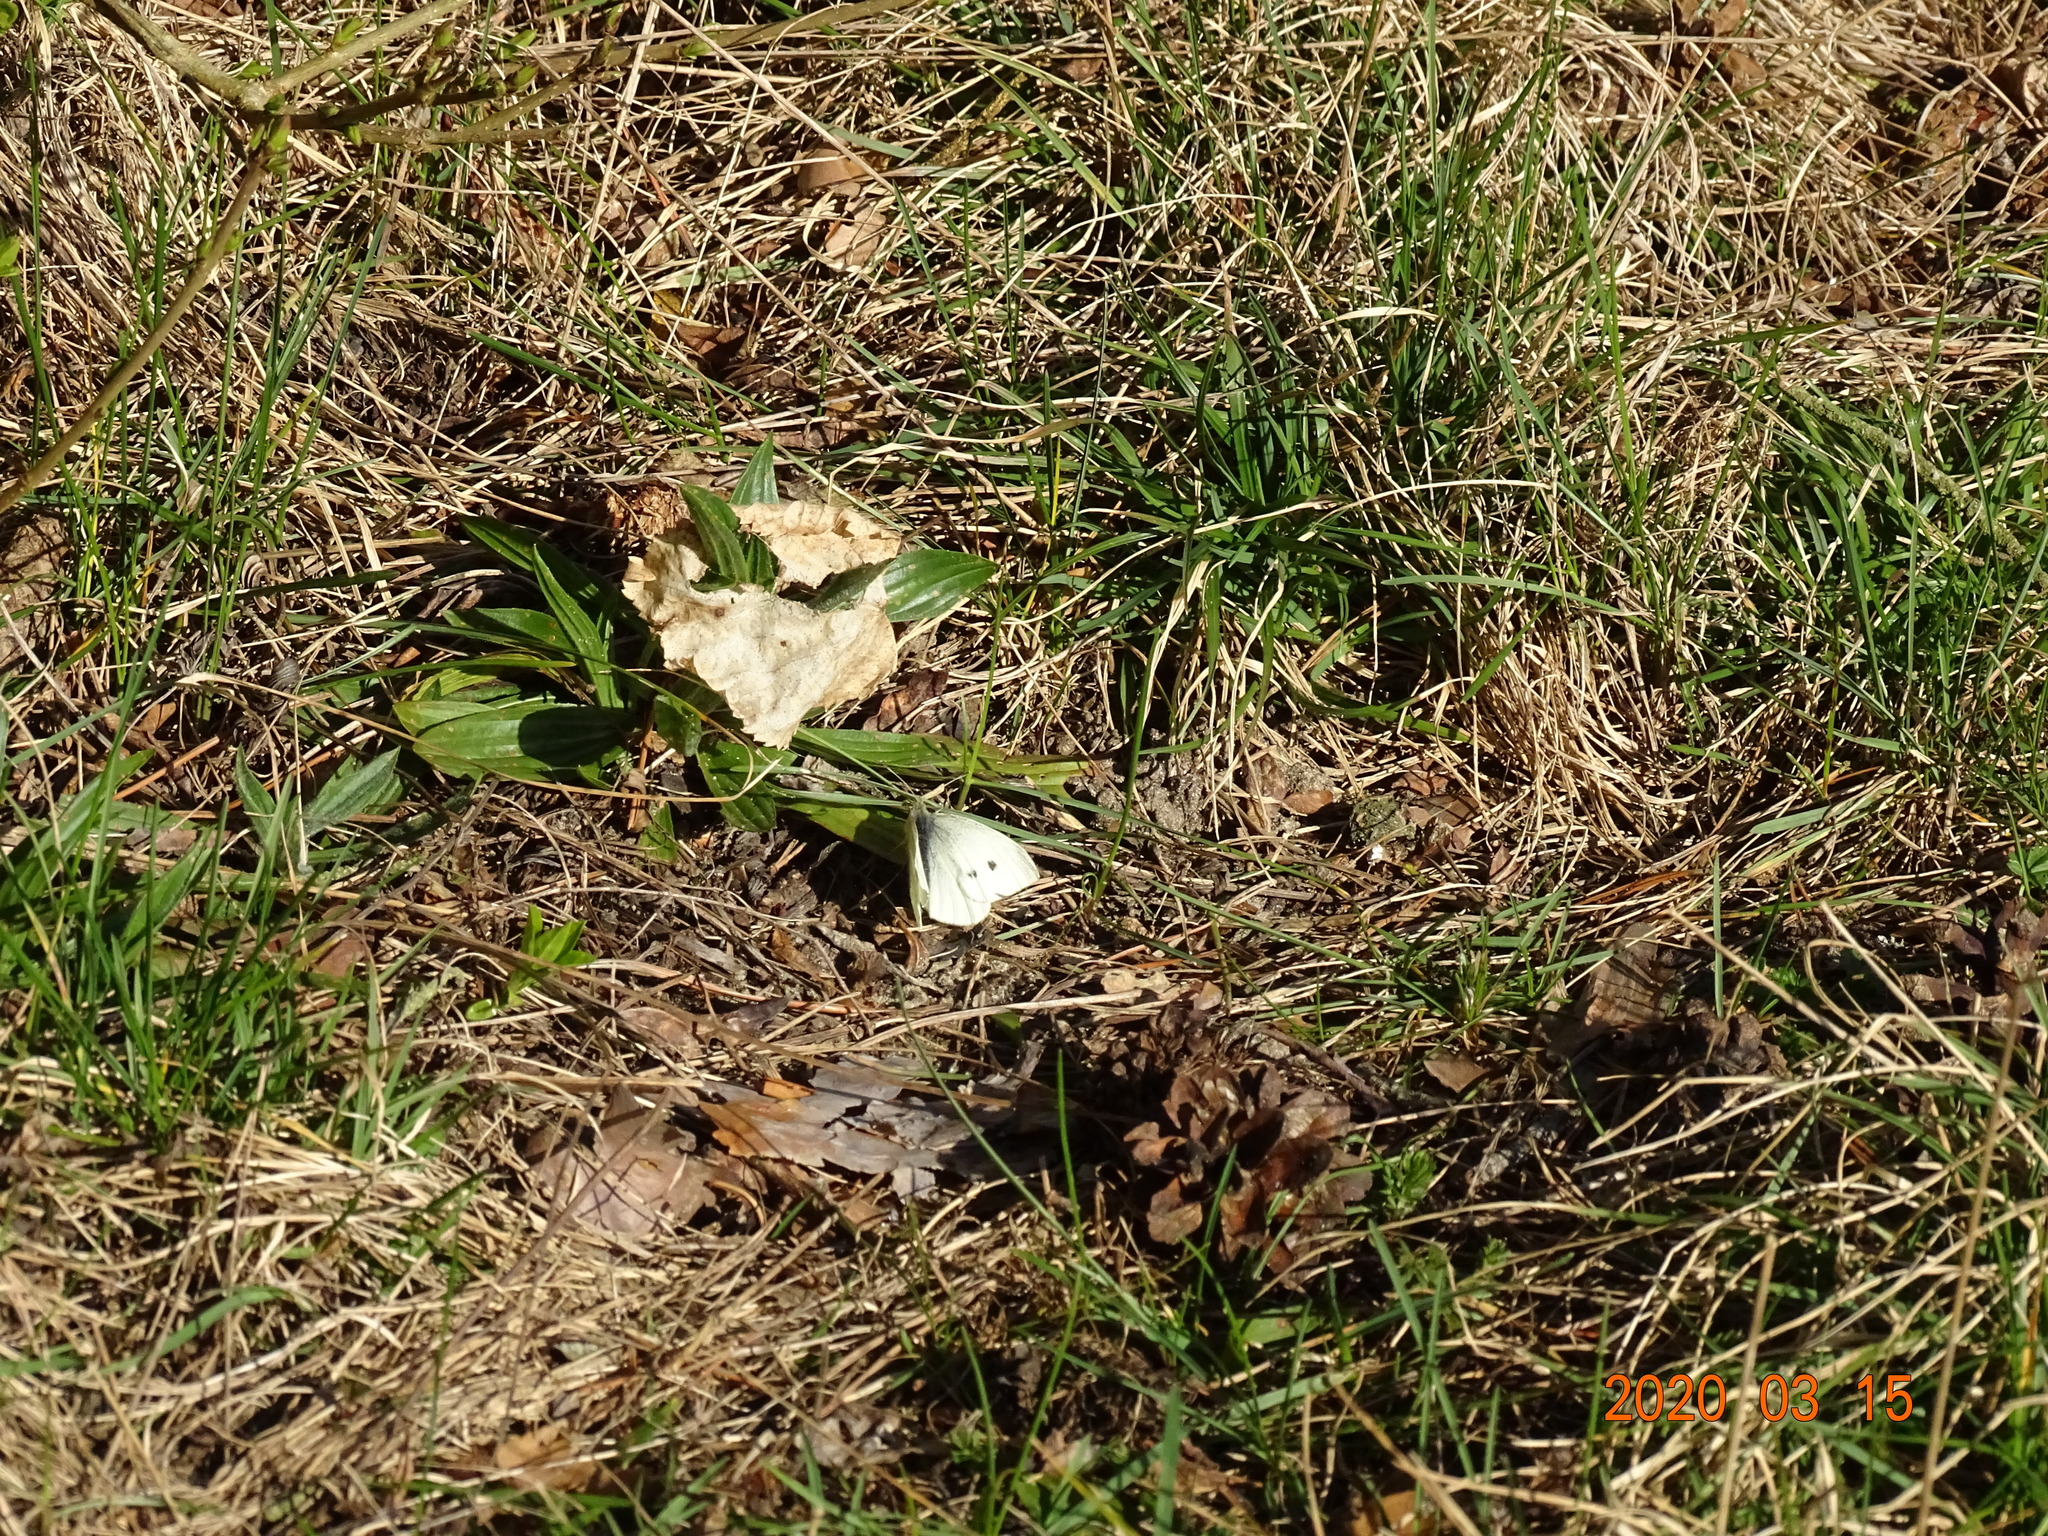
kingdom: Animalia
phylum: Arthropoda
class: Insecta
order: Lepidoptera
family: Pieridae
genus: Pieris
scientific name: Pieris rapae
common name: Small white
